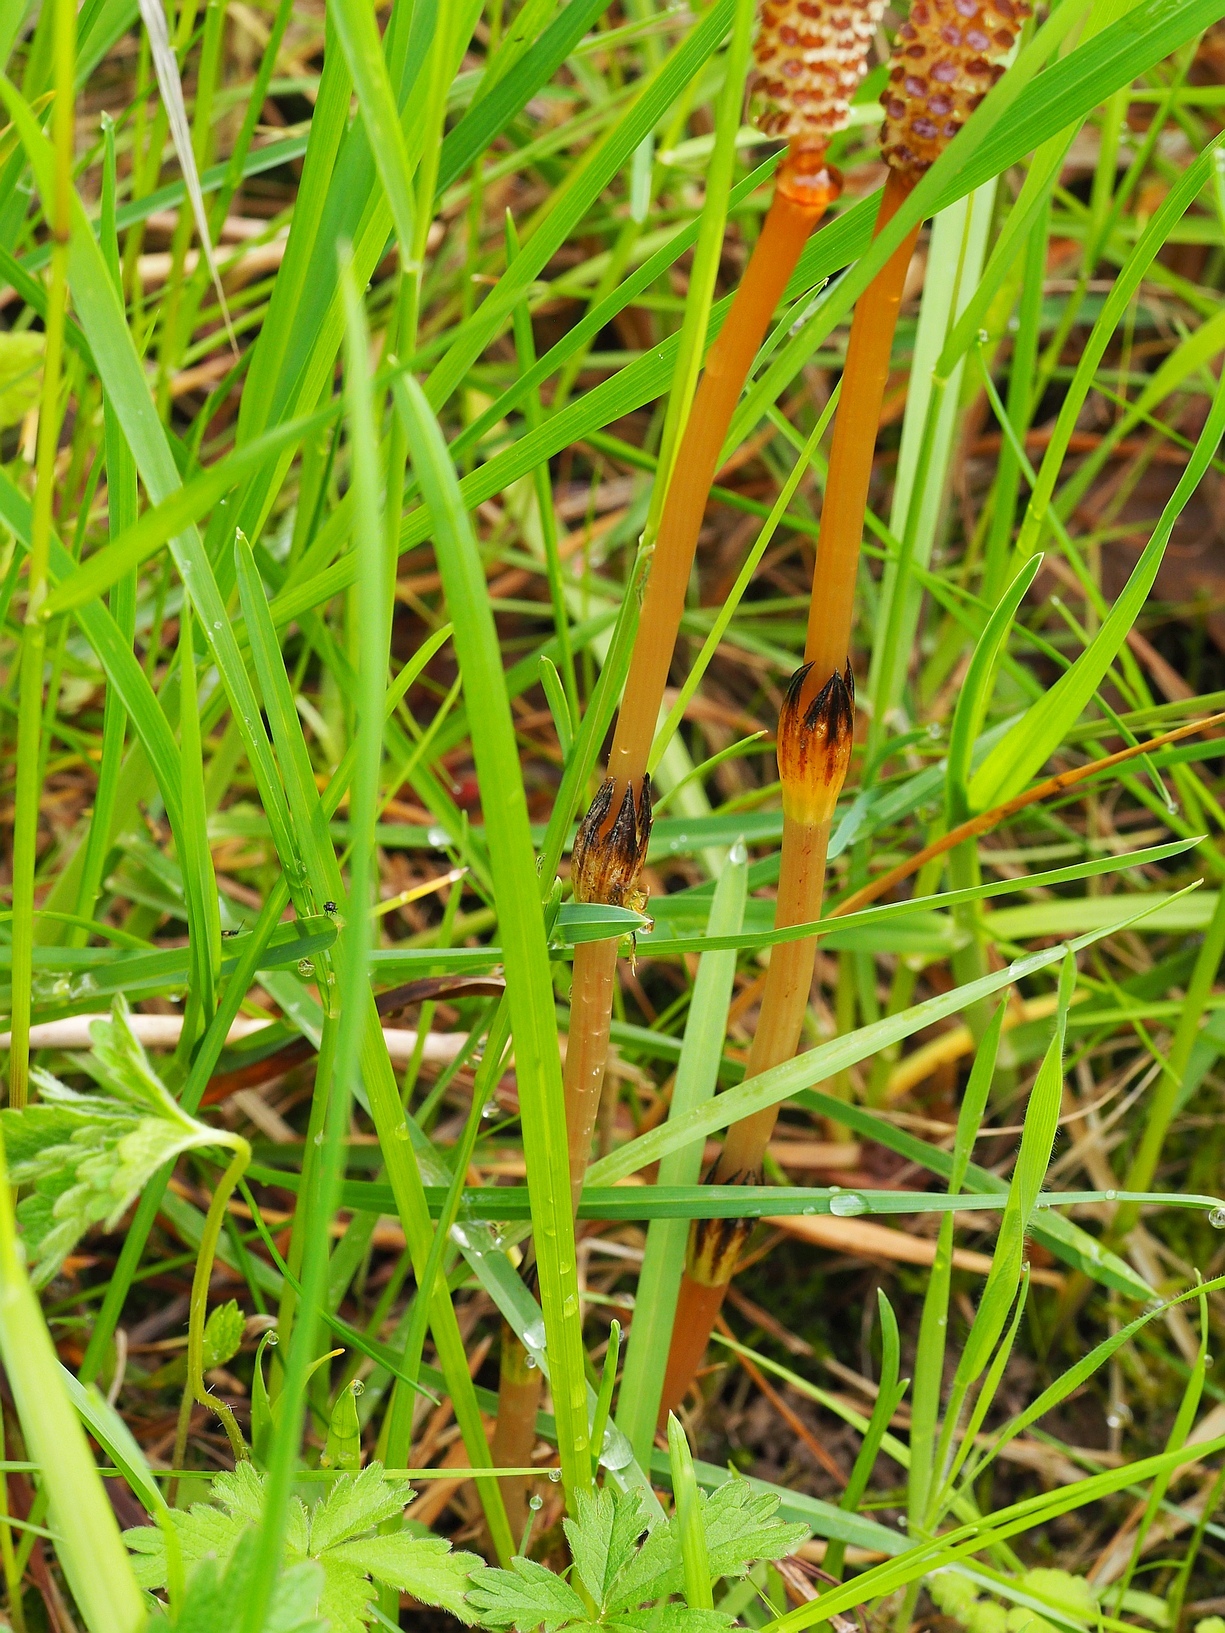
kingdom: Plantae
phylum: Tracheophyta
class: Polypodiopsida
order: Equisetales
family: Equisetaceae
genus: Equisetum
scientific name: Equisetum arvense
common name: Field horsetail
